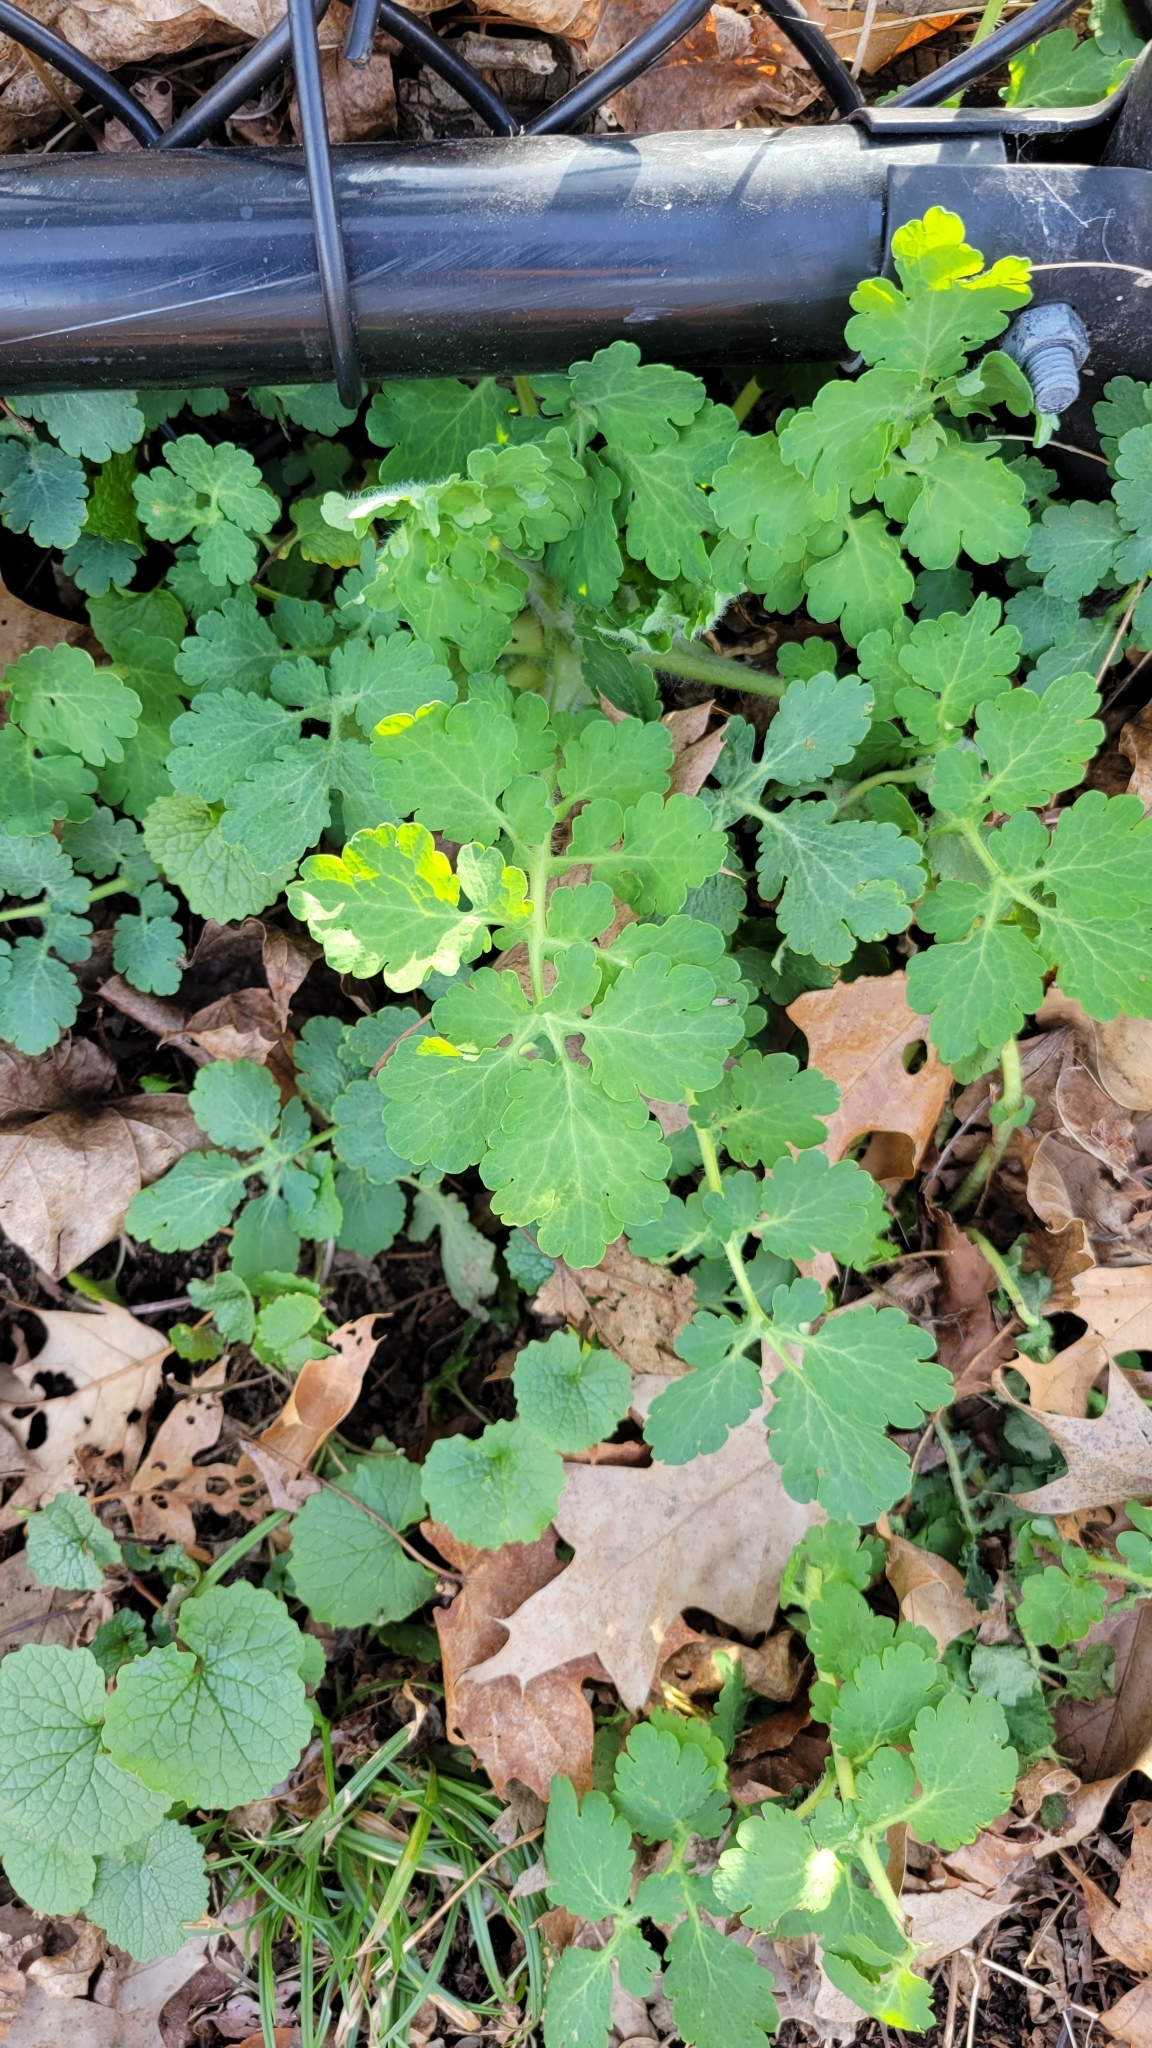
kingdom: Plantae
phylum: Tracheophyta
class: Magnoliopsida
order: Ranunculales
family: Papaveraceae
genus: Chelidonium
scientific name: Chelidonium majus
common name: Greater celandine
